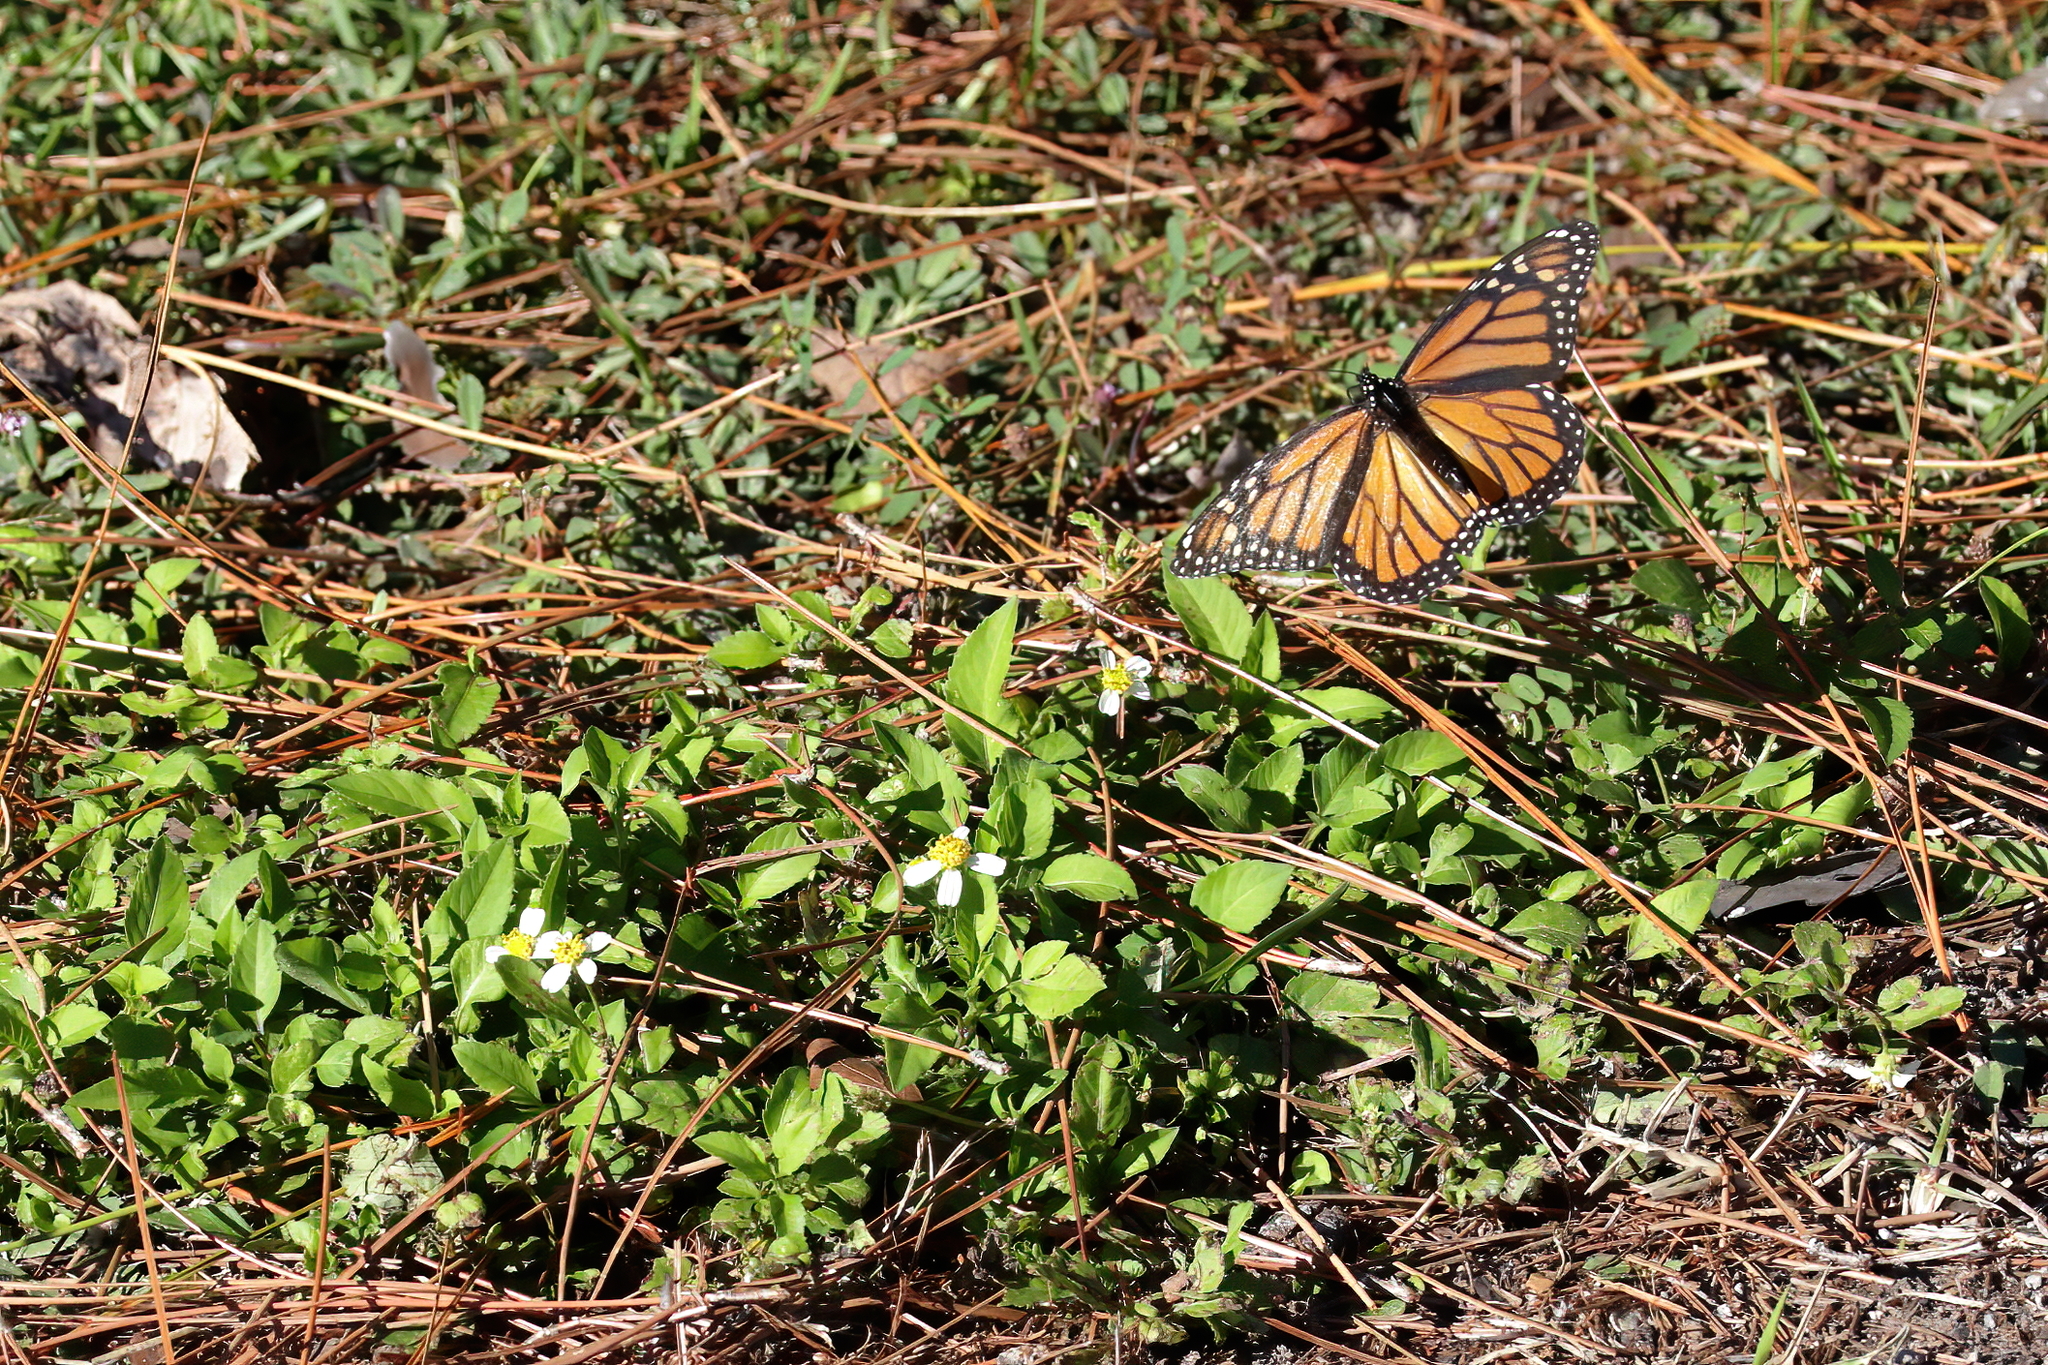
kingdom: Animalia
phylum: Arthropoda
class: Insecta
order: Lepidoptera
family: Nymphalidae
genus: Danaus
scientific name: Danaus plexippus
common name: Monarch
